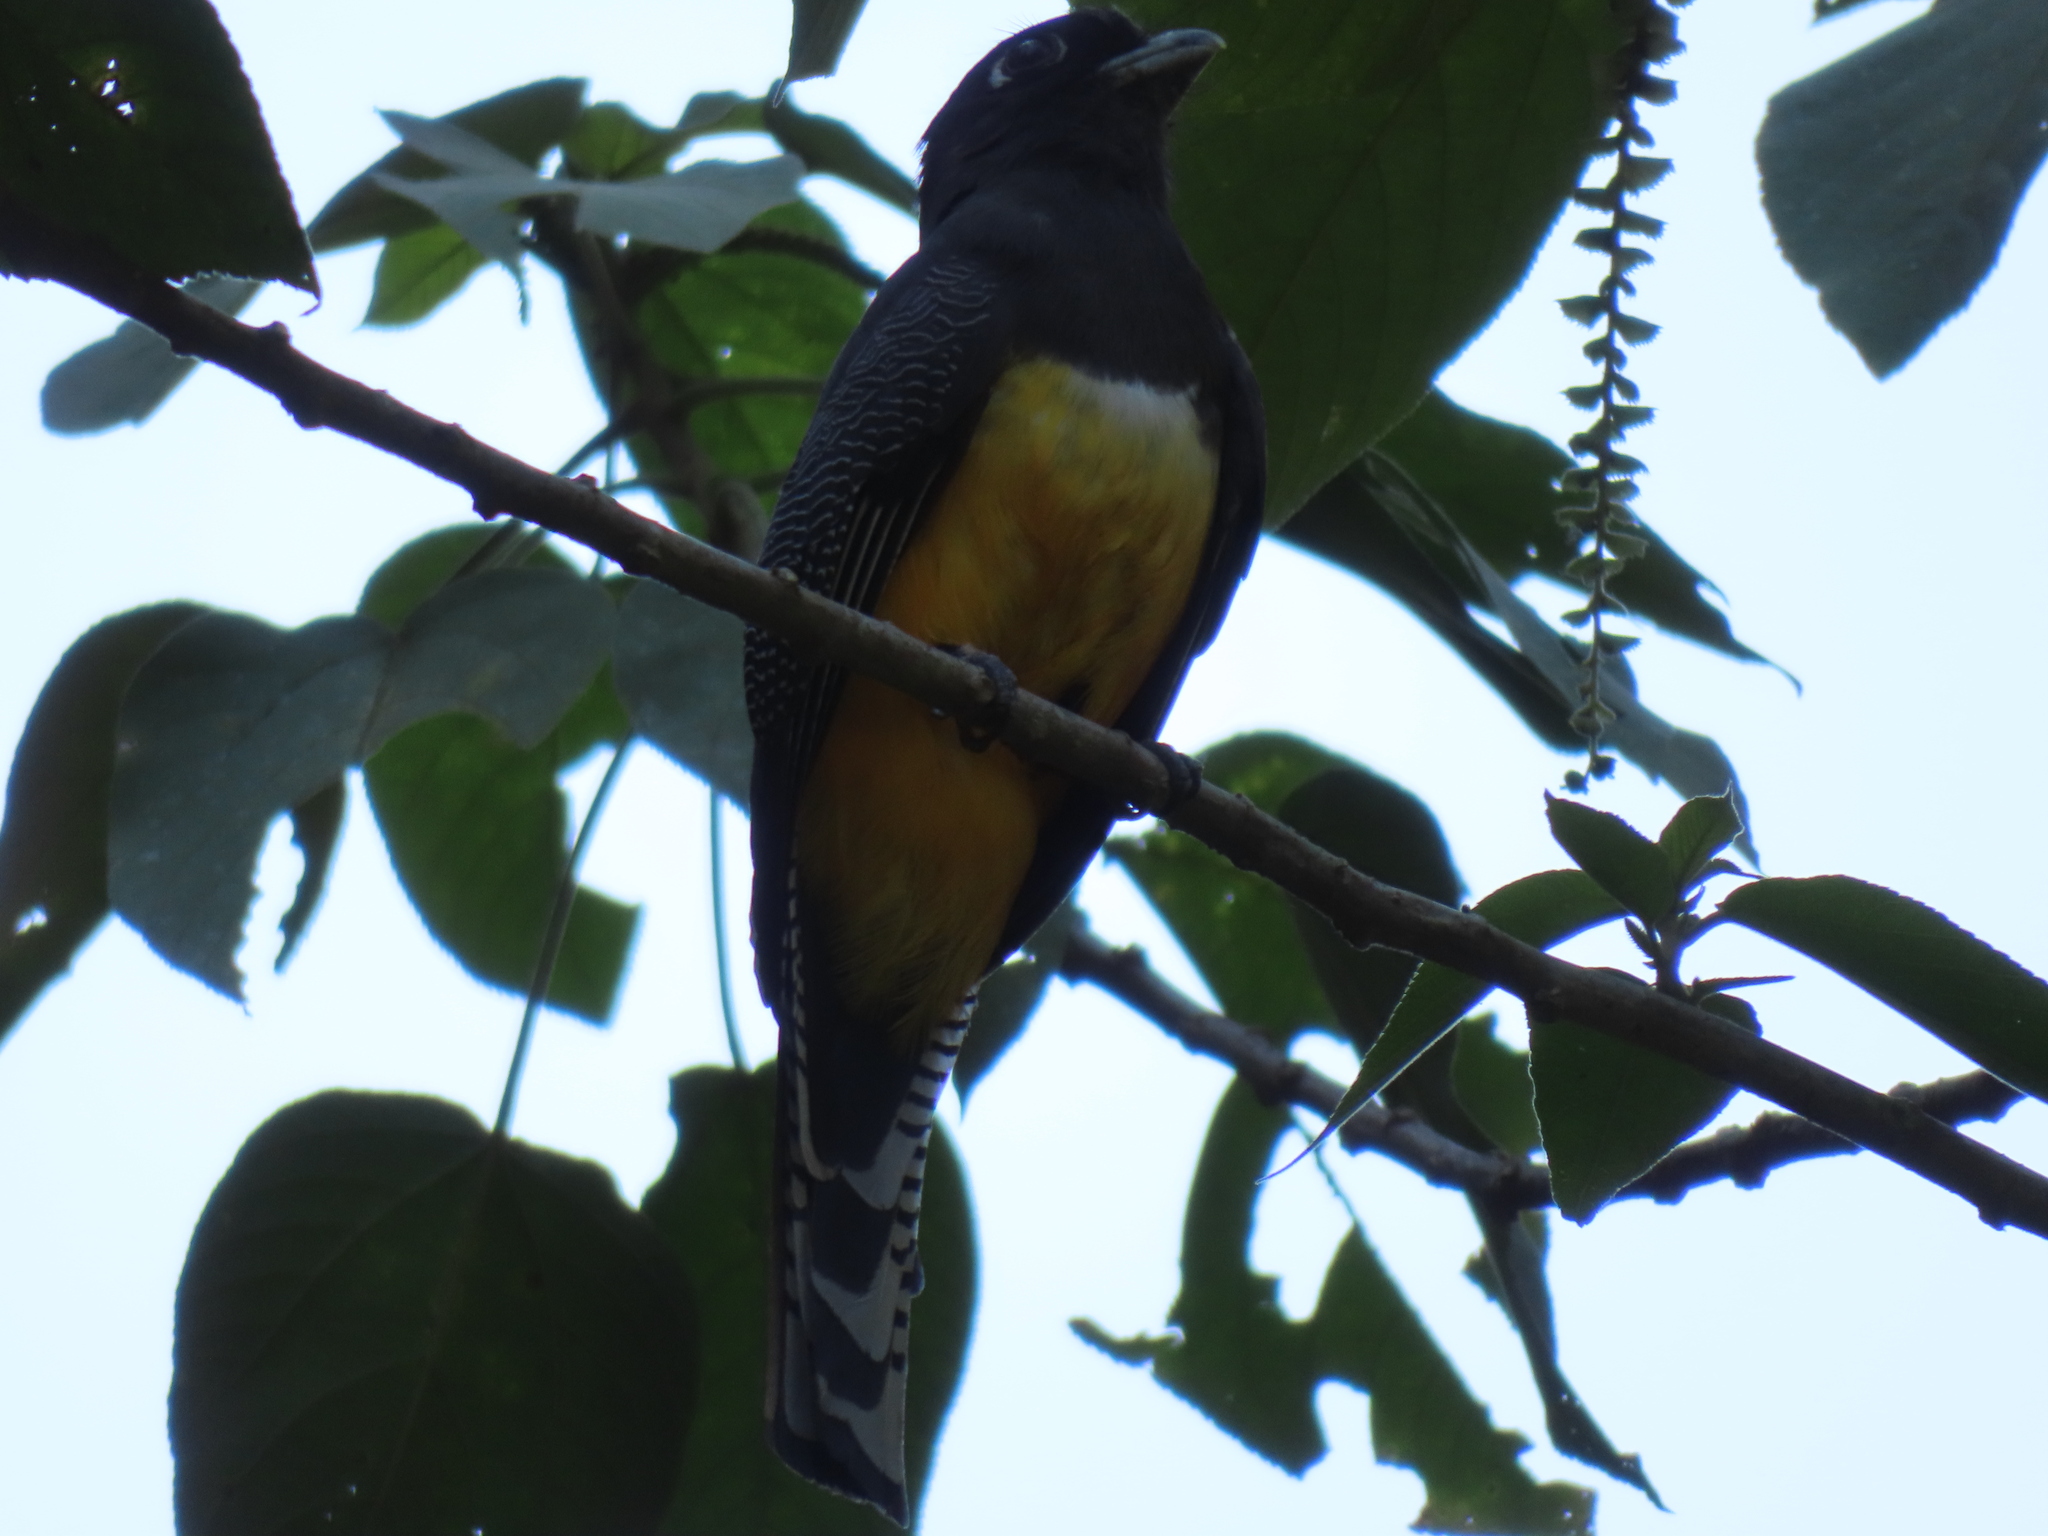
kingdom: Animalia
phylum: Chordata
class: Aves
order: Trogoniformes
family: Trogonidae
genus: Trogon
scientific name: Trogon caligatus
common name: Gartered trogon
